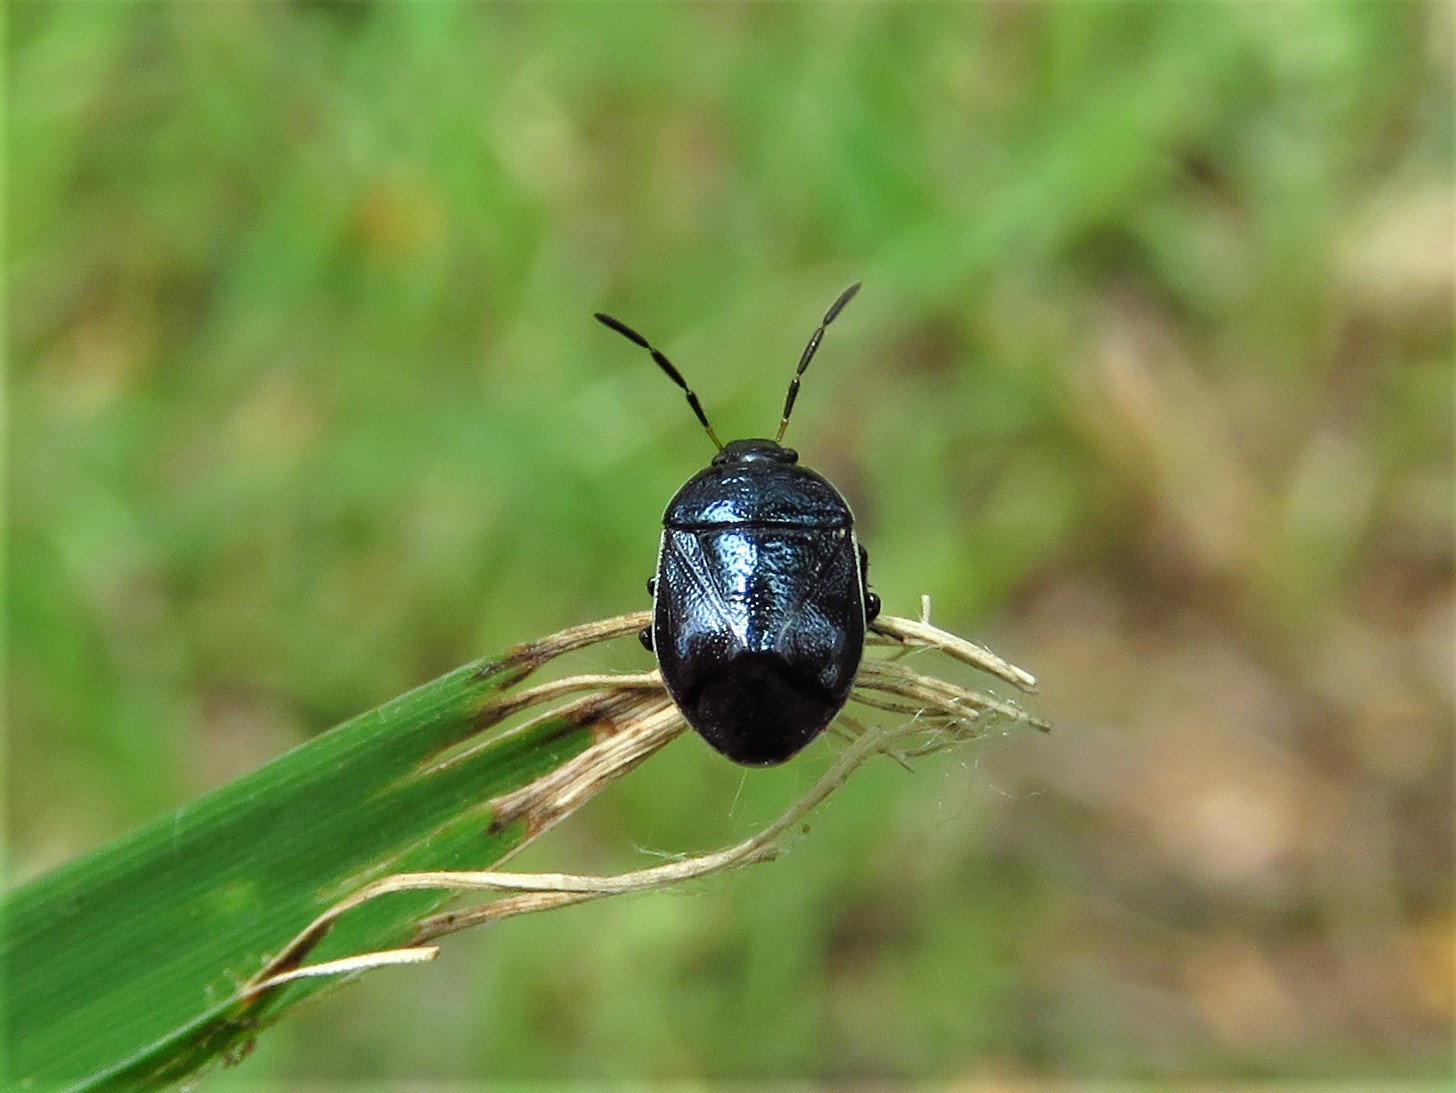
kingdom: Animalia
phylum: Arthropoda
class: Insecta
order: Hemiptera
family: Cydnidae
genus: Sehirus
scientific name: Sehirus cinctus
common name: White-margined burrower bug
